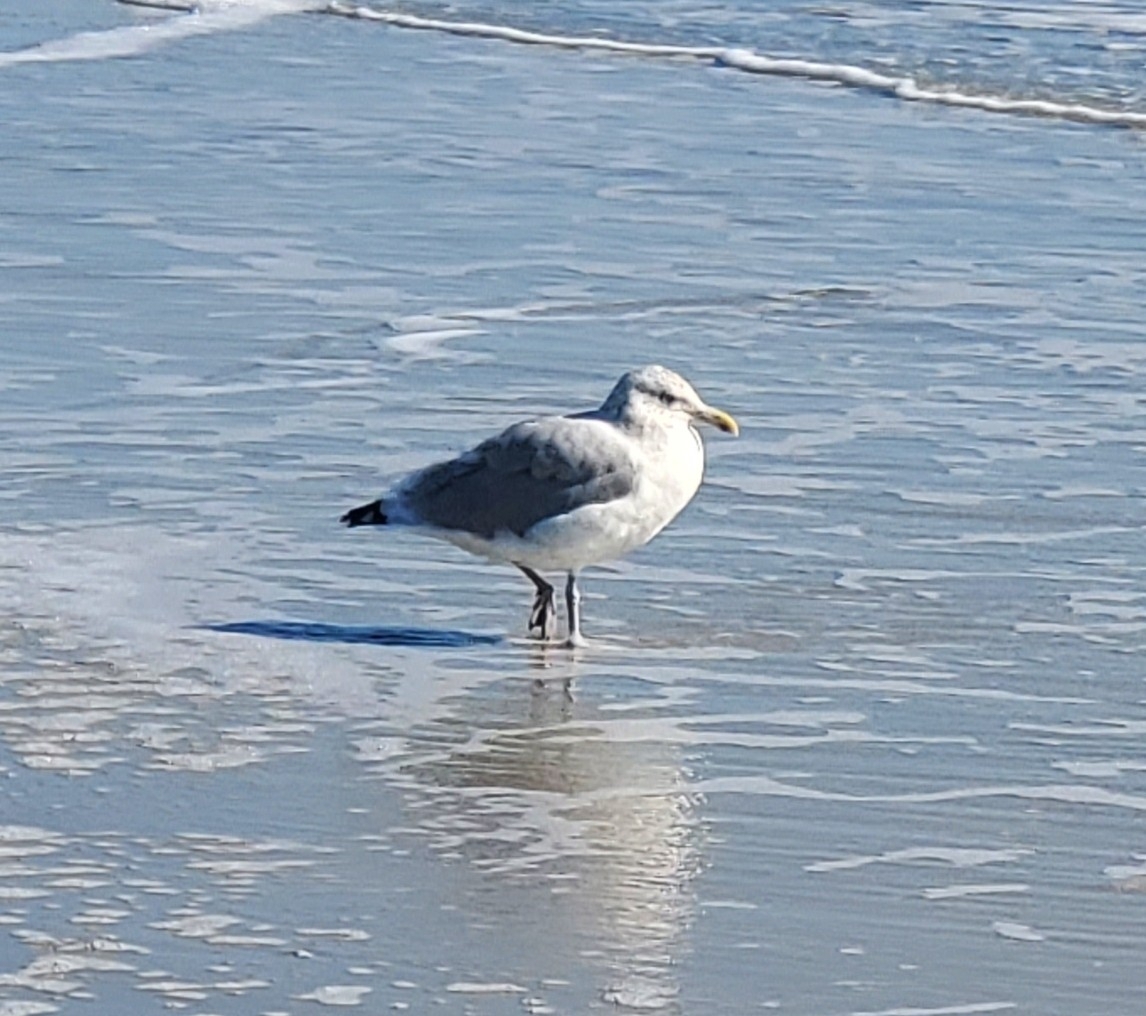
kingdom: Animalia
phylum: Chordata
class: Aves
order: Charadriiformes
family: Laridae
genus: Larus
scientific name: Larus argentatus
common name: Herring gull
